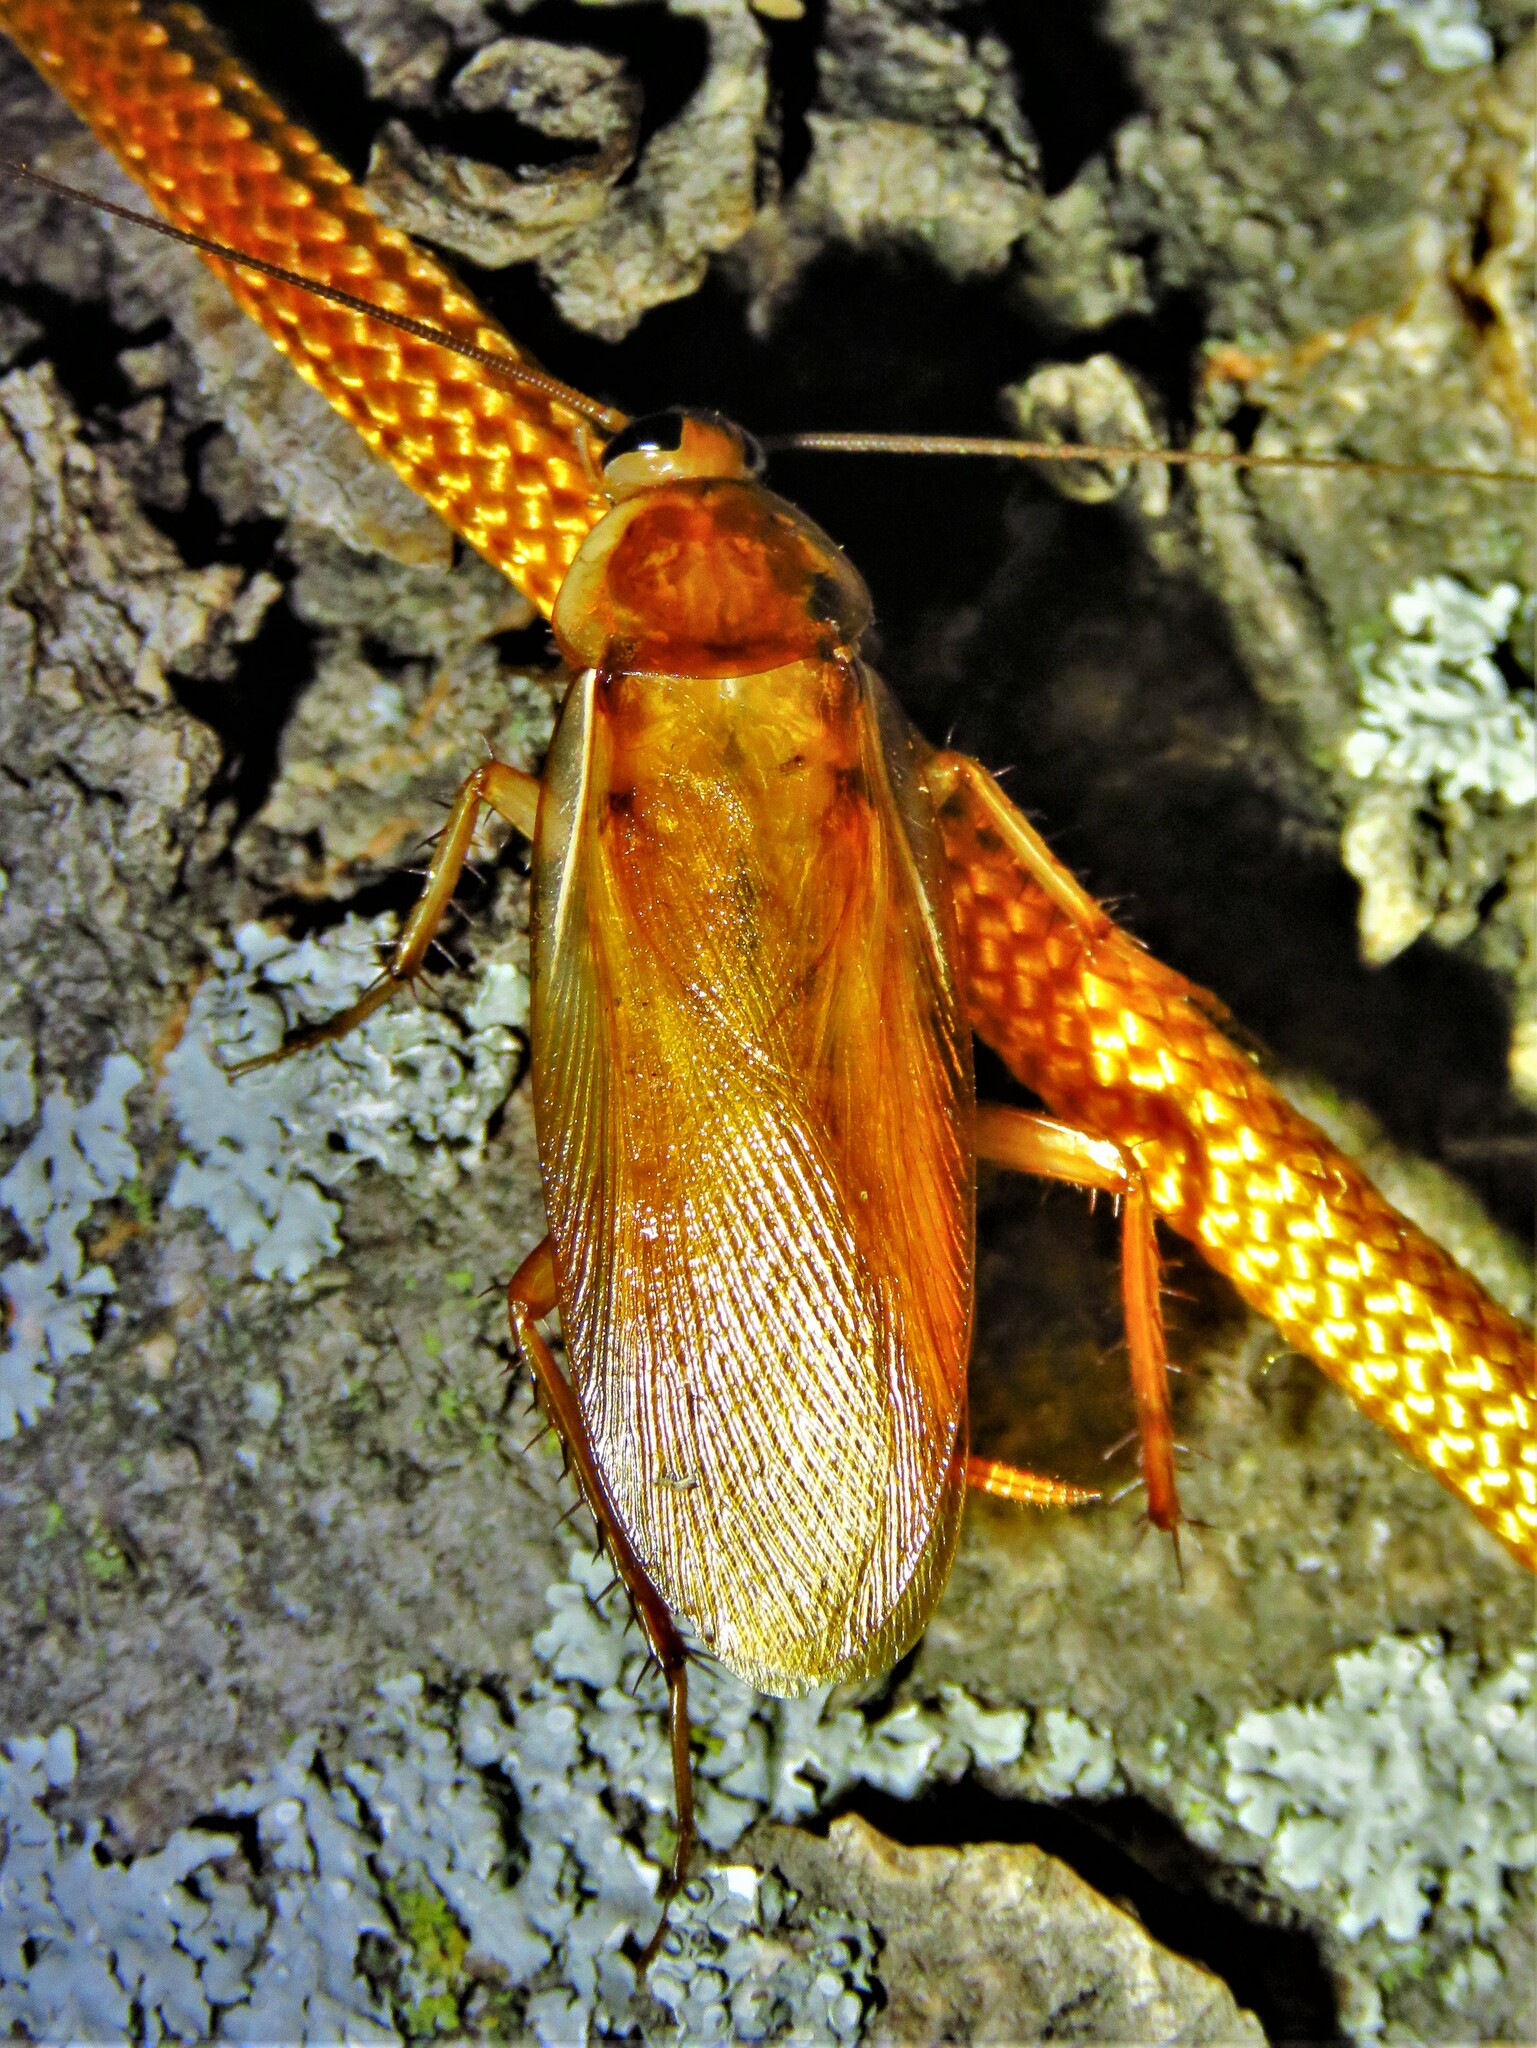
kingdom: Animalia
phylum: Arthropoda
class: Insecta
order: Blattodea
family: Blattidae
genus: Periplaneta
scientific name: Periplaneta lateralis
